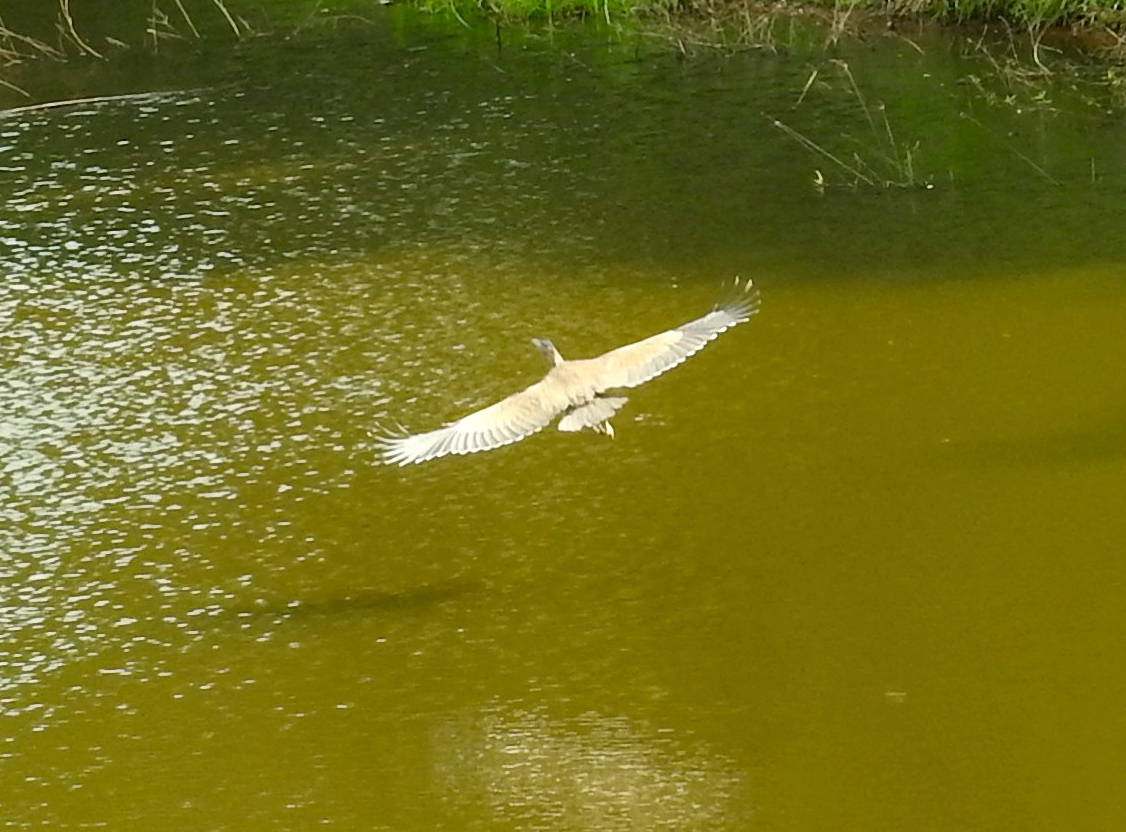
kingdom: Animalia
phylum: Chordata
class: Aves
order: Pelecaniformes
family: Ardeidae
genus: Ardea
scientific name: Ardea herodias
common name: Great blue heron
